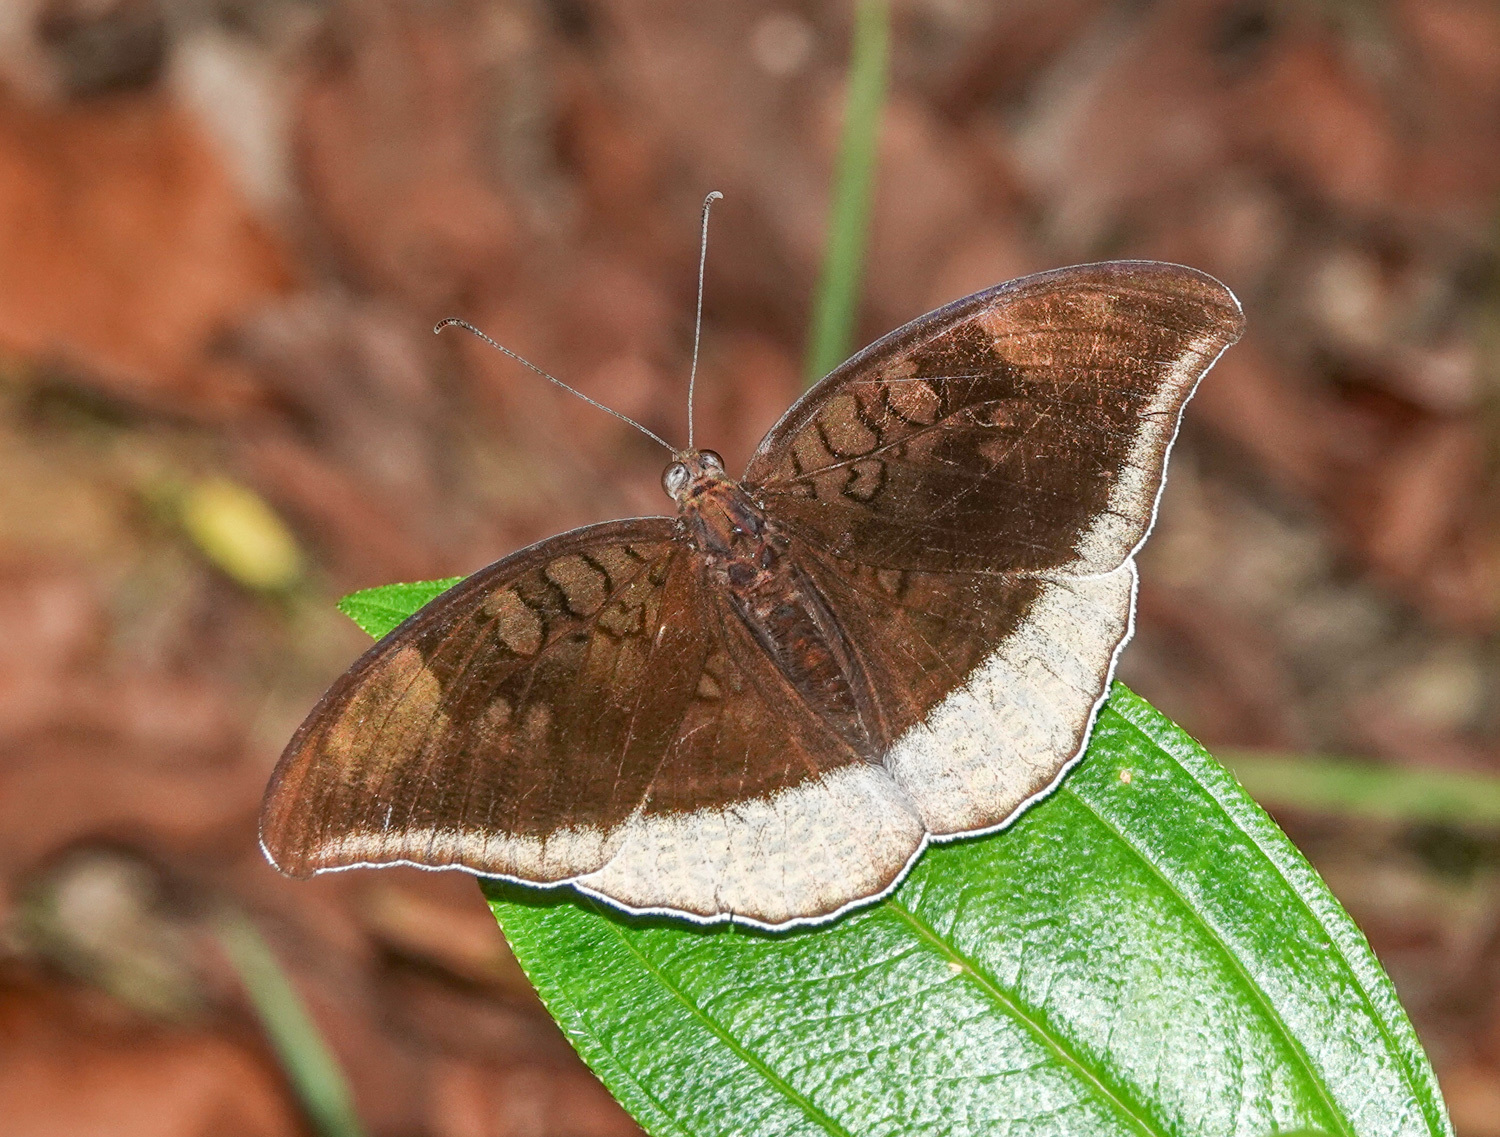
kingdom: Animalia
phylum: Arthropoda
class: Insecta
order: Lepidoptera
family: Nymphalidae
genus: Tanaecia
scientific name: Tanaecia lepidea
